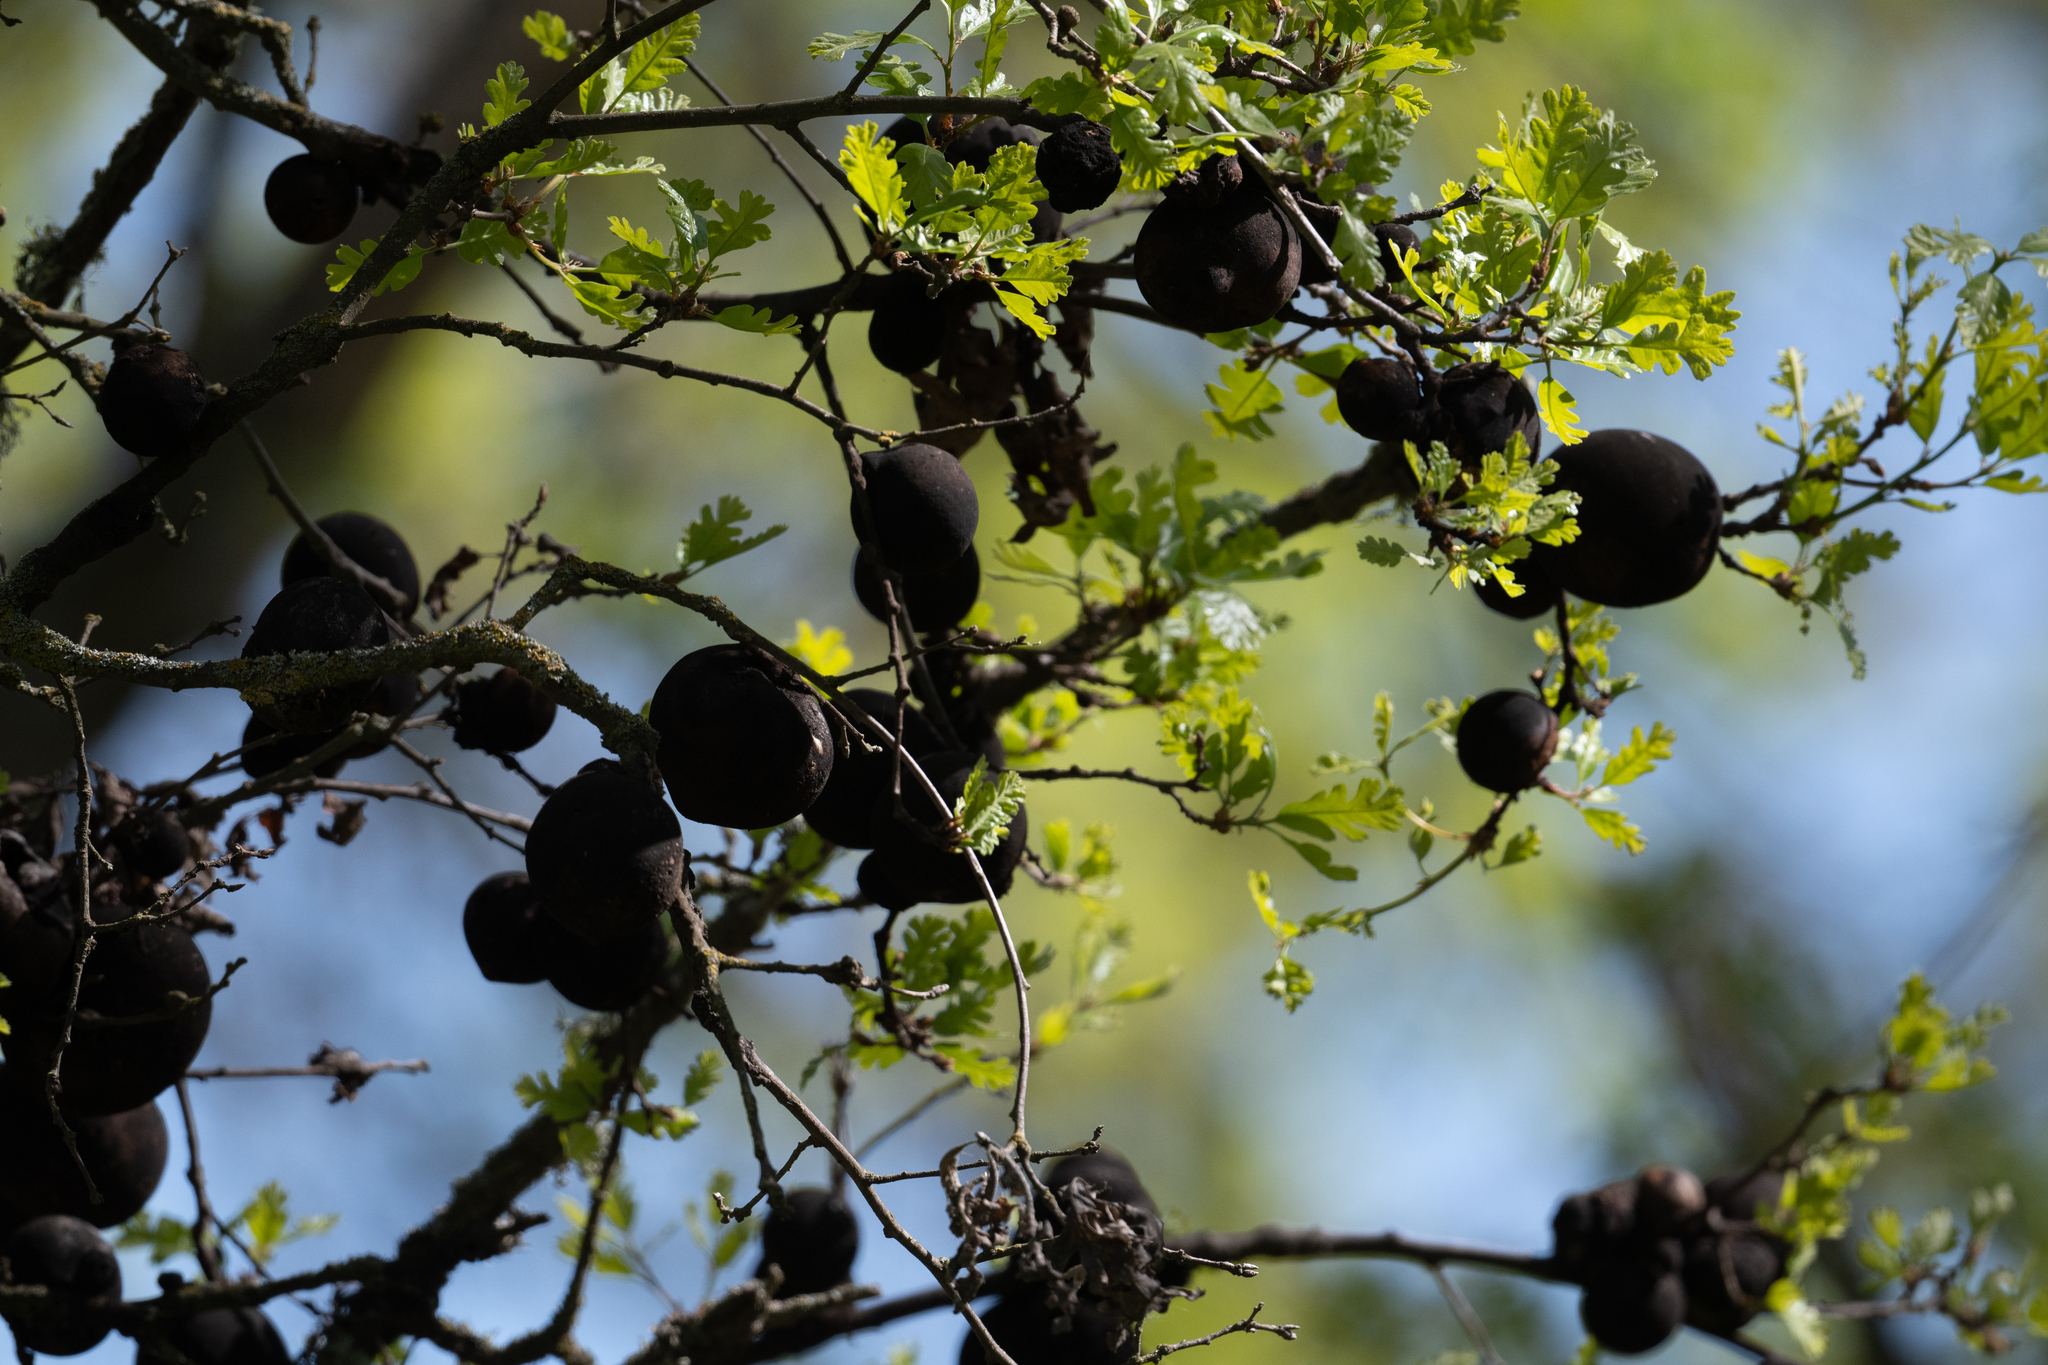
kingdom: Animalia
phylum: Arthropoda
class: Insecta
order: Hymenoptera
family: Cynipidae
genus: Andricus
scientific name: Andricus quercuscalifornicus
